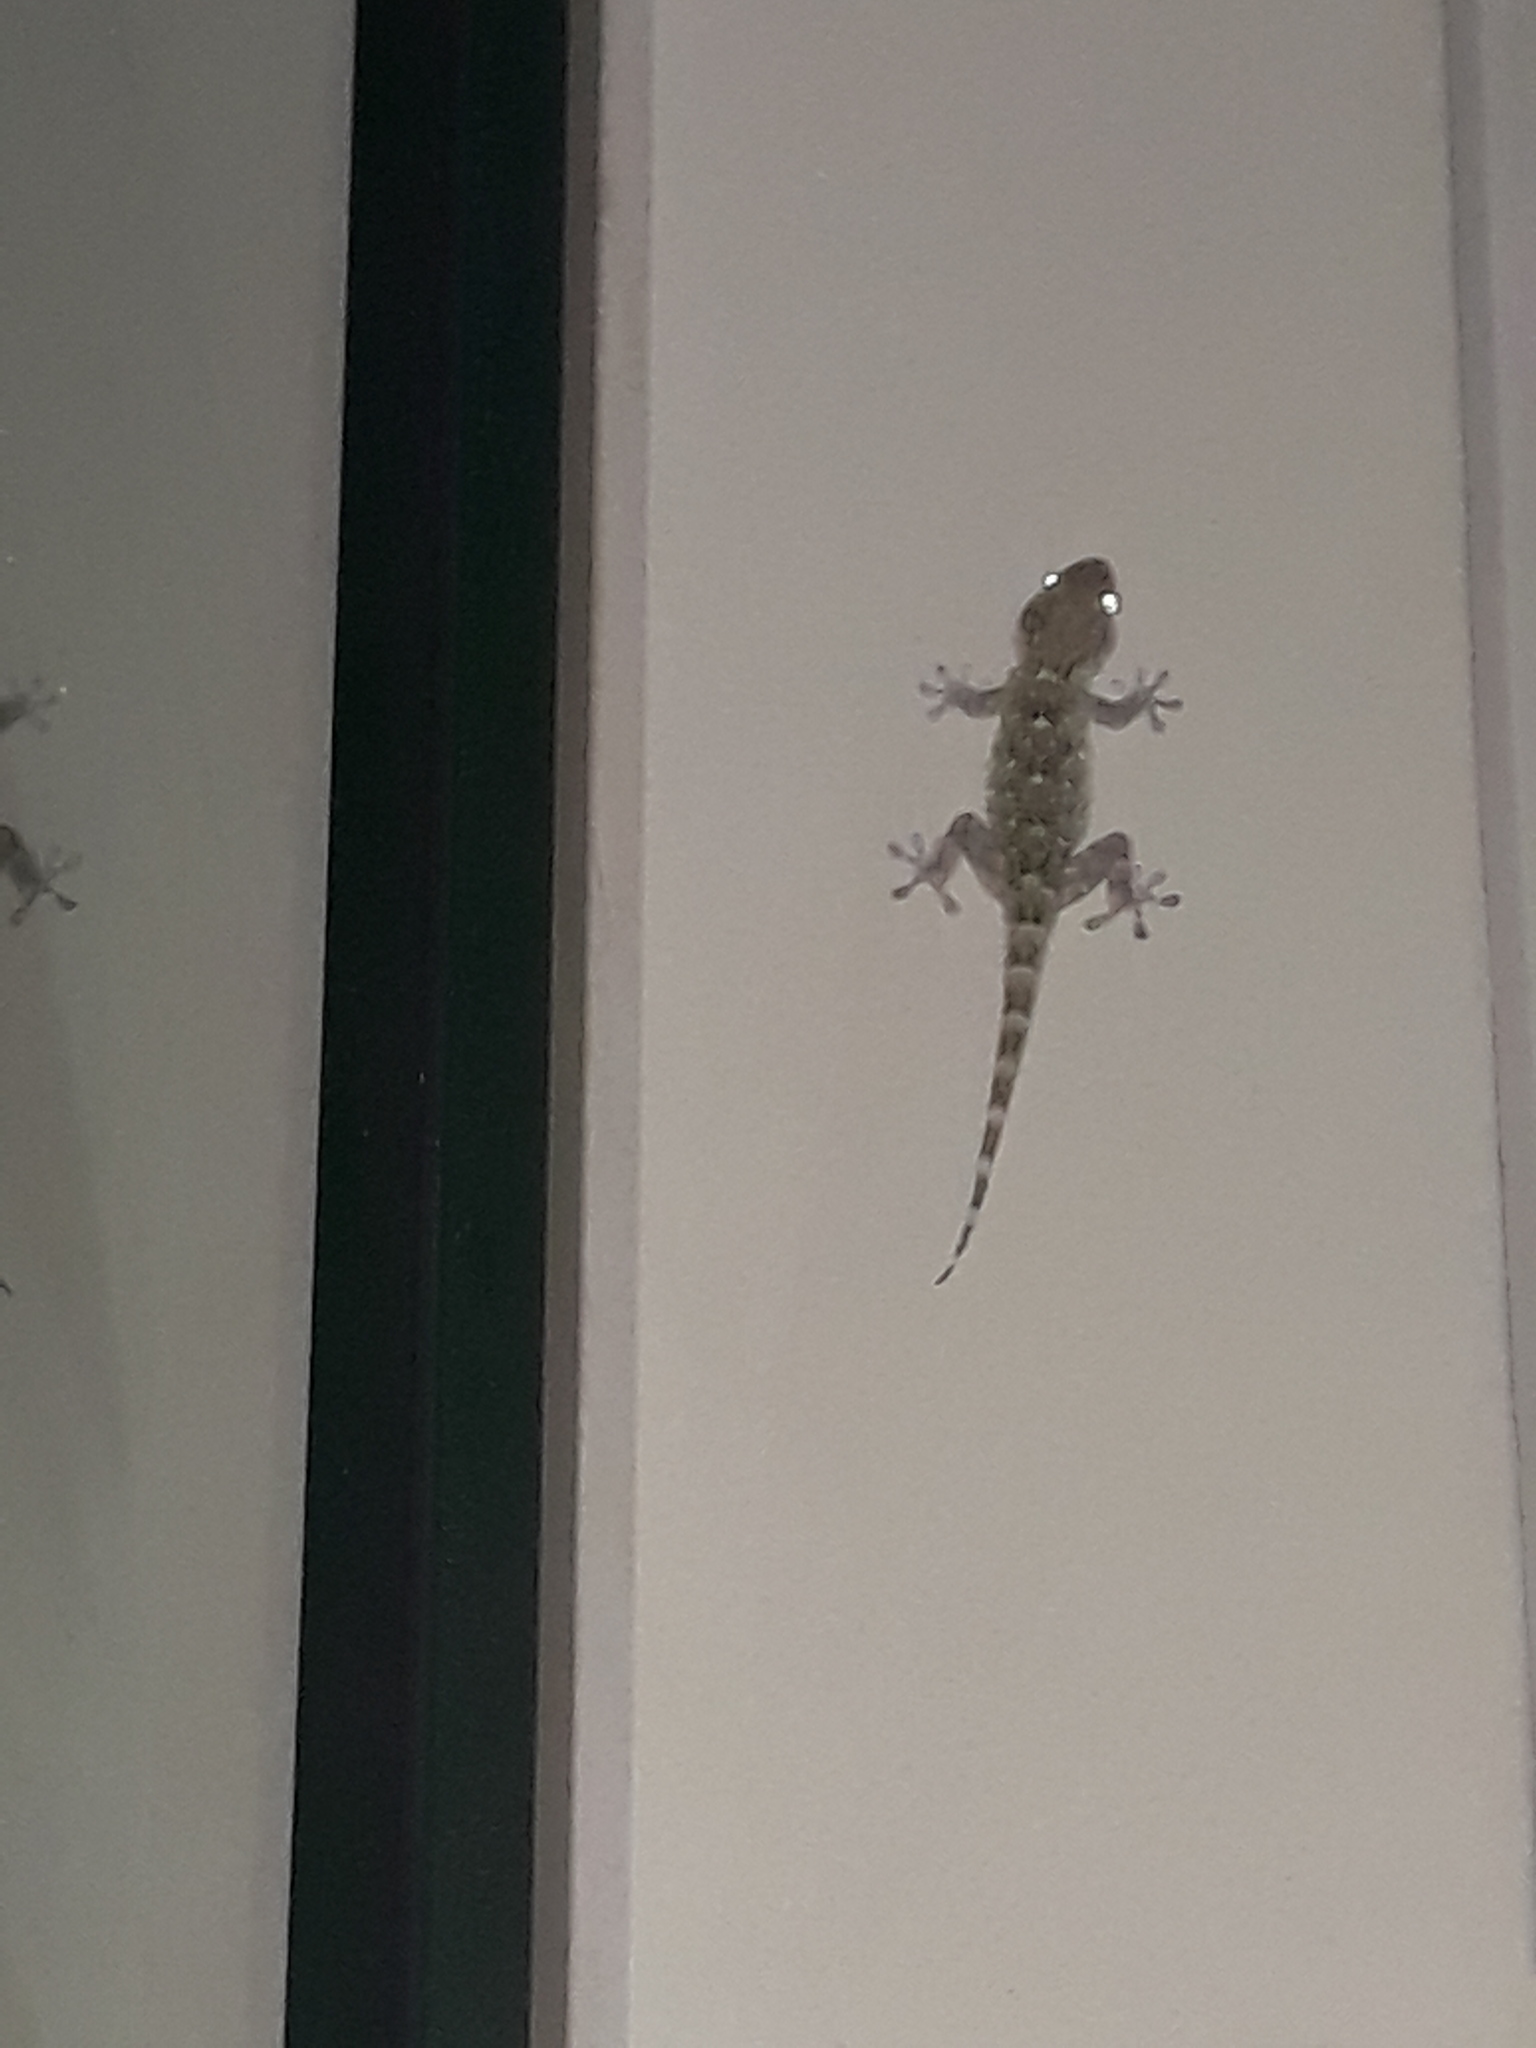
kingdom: Animalia
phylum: Chordata
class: Squamata
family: Phyllodactylidae
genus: Tarentola
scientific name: Tarentola mauritanica
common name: Moorish gecko
